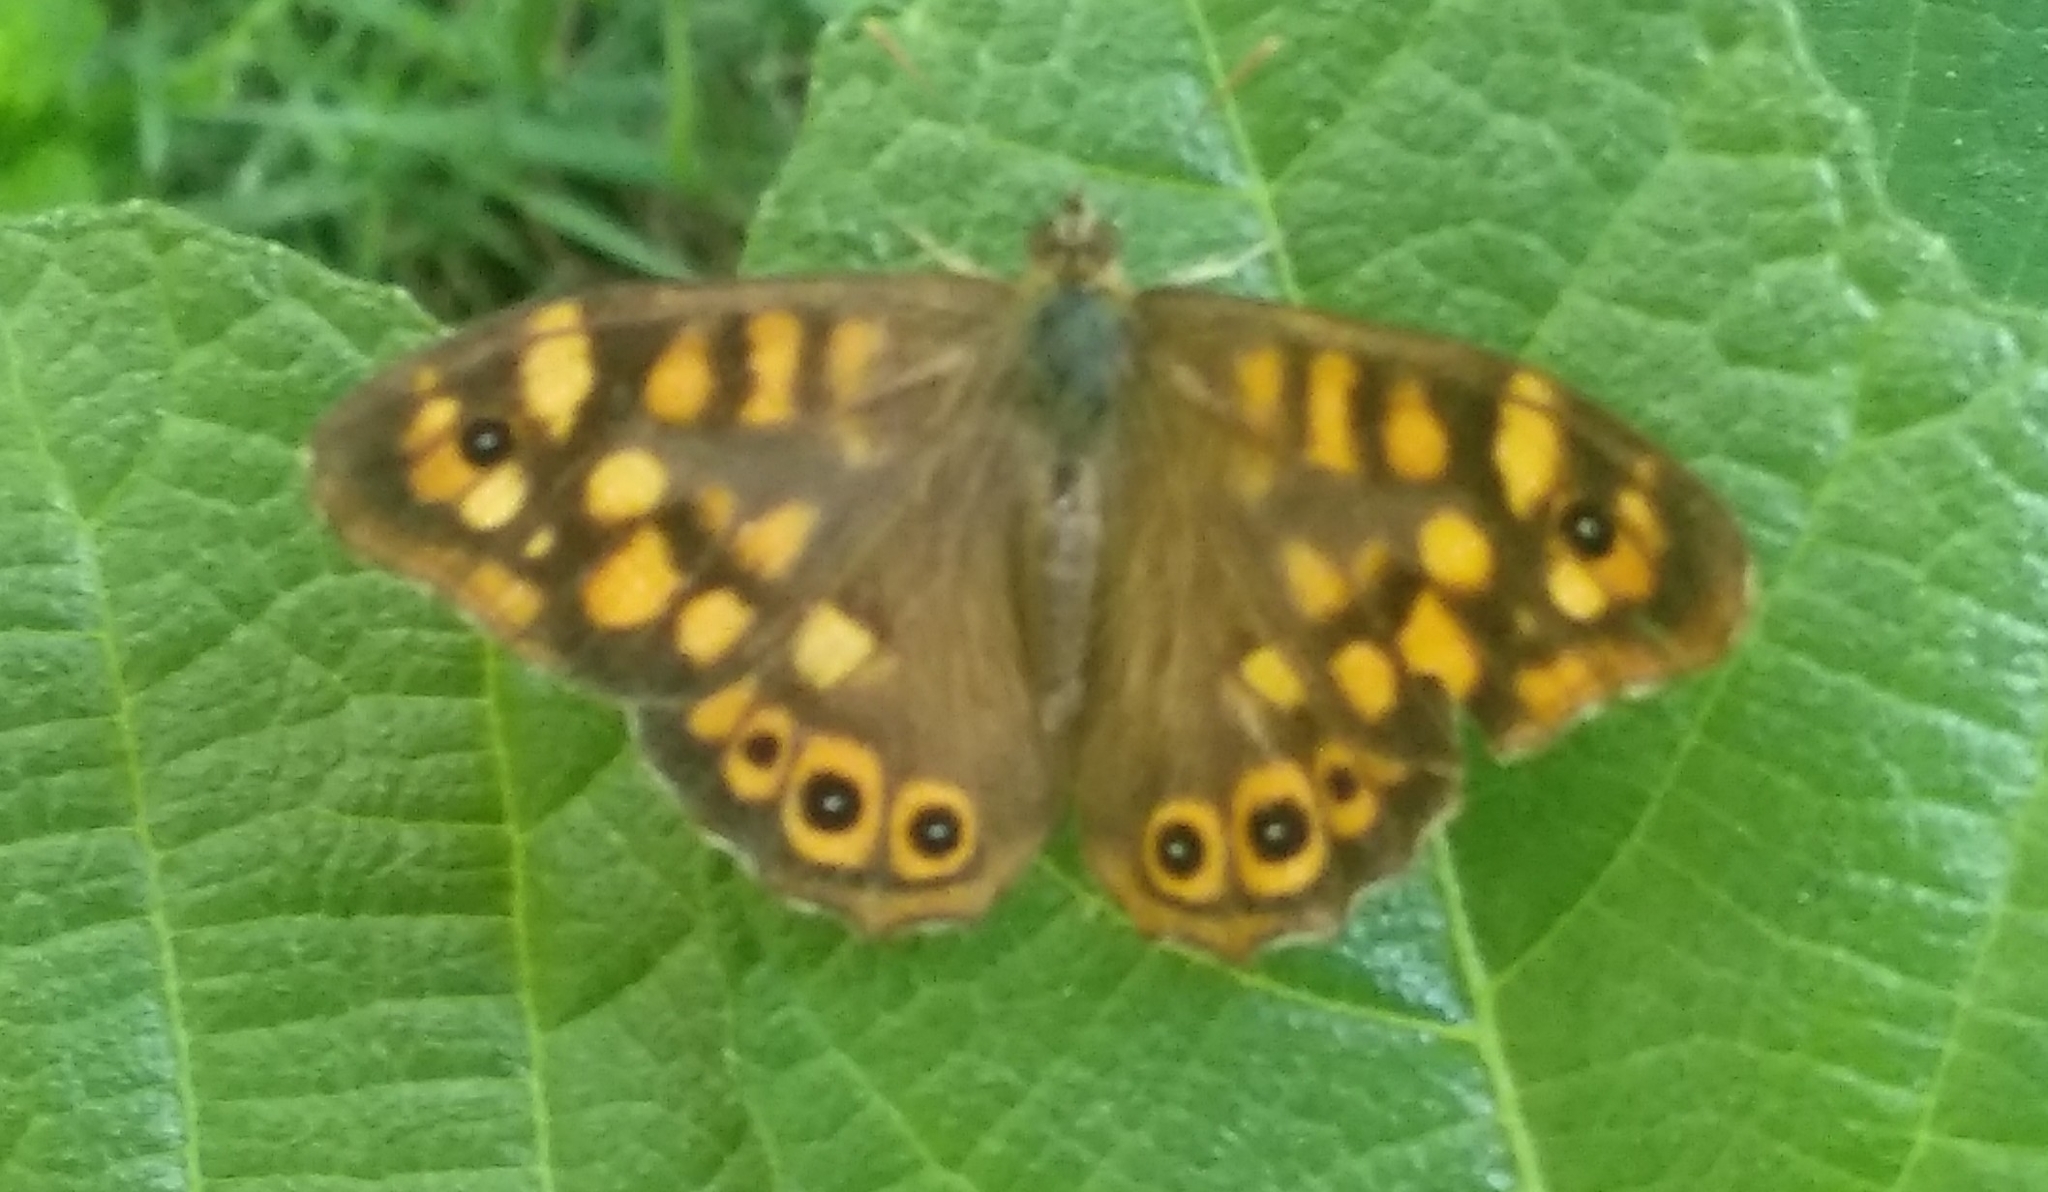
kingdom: Animalia
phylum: Arthropoda
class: Insecta
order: Lepidoptera
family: Nymphalidae
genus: Pararge
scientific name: Pararge aegeria
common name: Speckled wood
